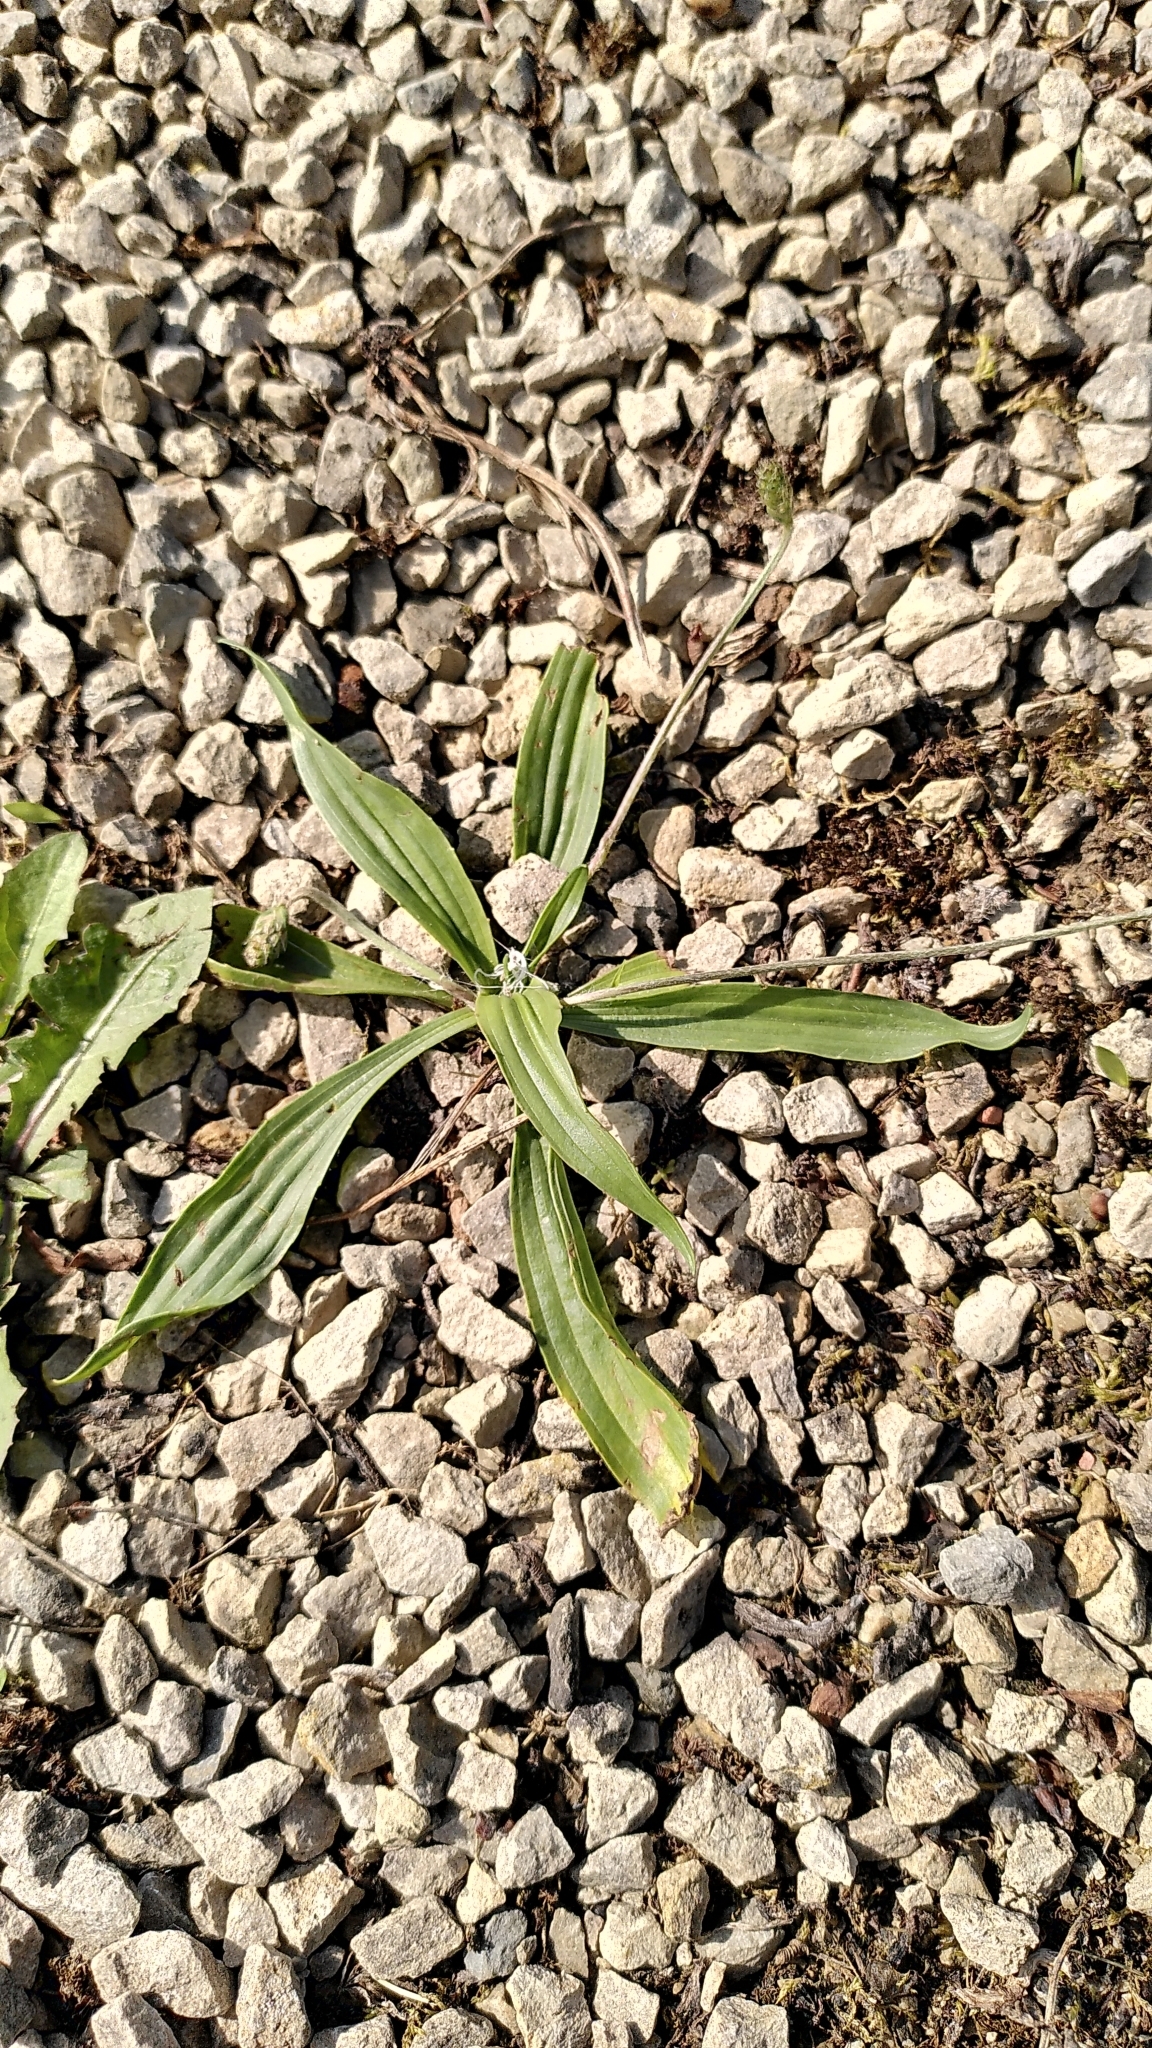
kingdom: Plantae
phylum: Tracheophyta
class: Magnoliopsida
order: Lamiales
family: Plantaginaceae
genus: Plantago
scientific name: Plantago lanceolata
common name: Ribwort plantain
